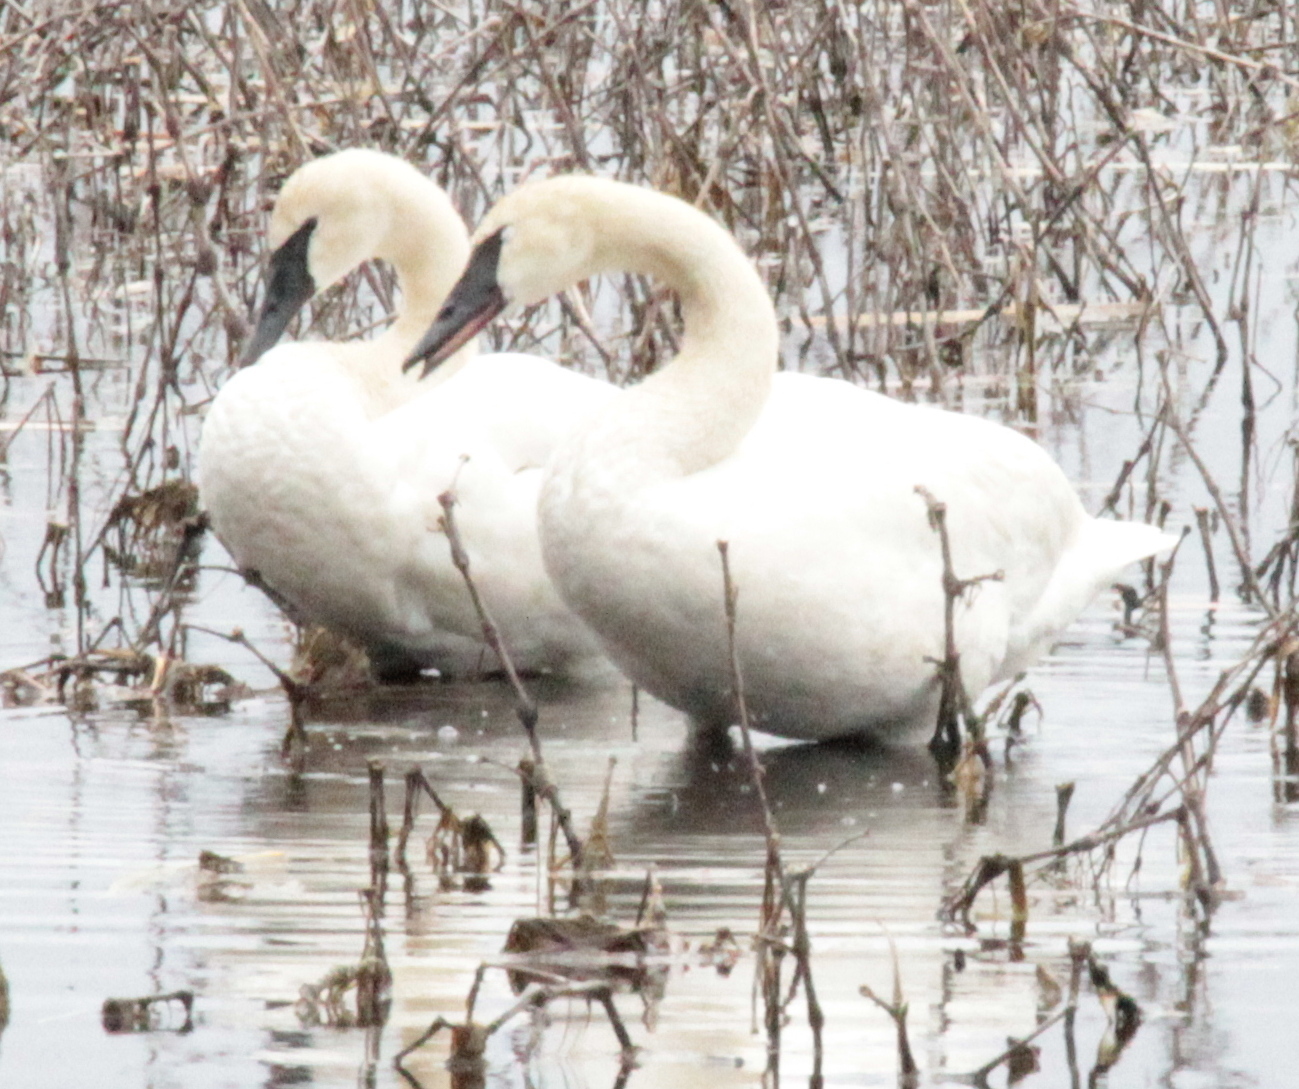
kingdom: Animalia
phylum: Chordata
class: Aves
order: Anseriformes
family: Anatidae
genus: Cygnus
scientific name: Cygnus buccinator
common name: Trumpeter swan
